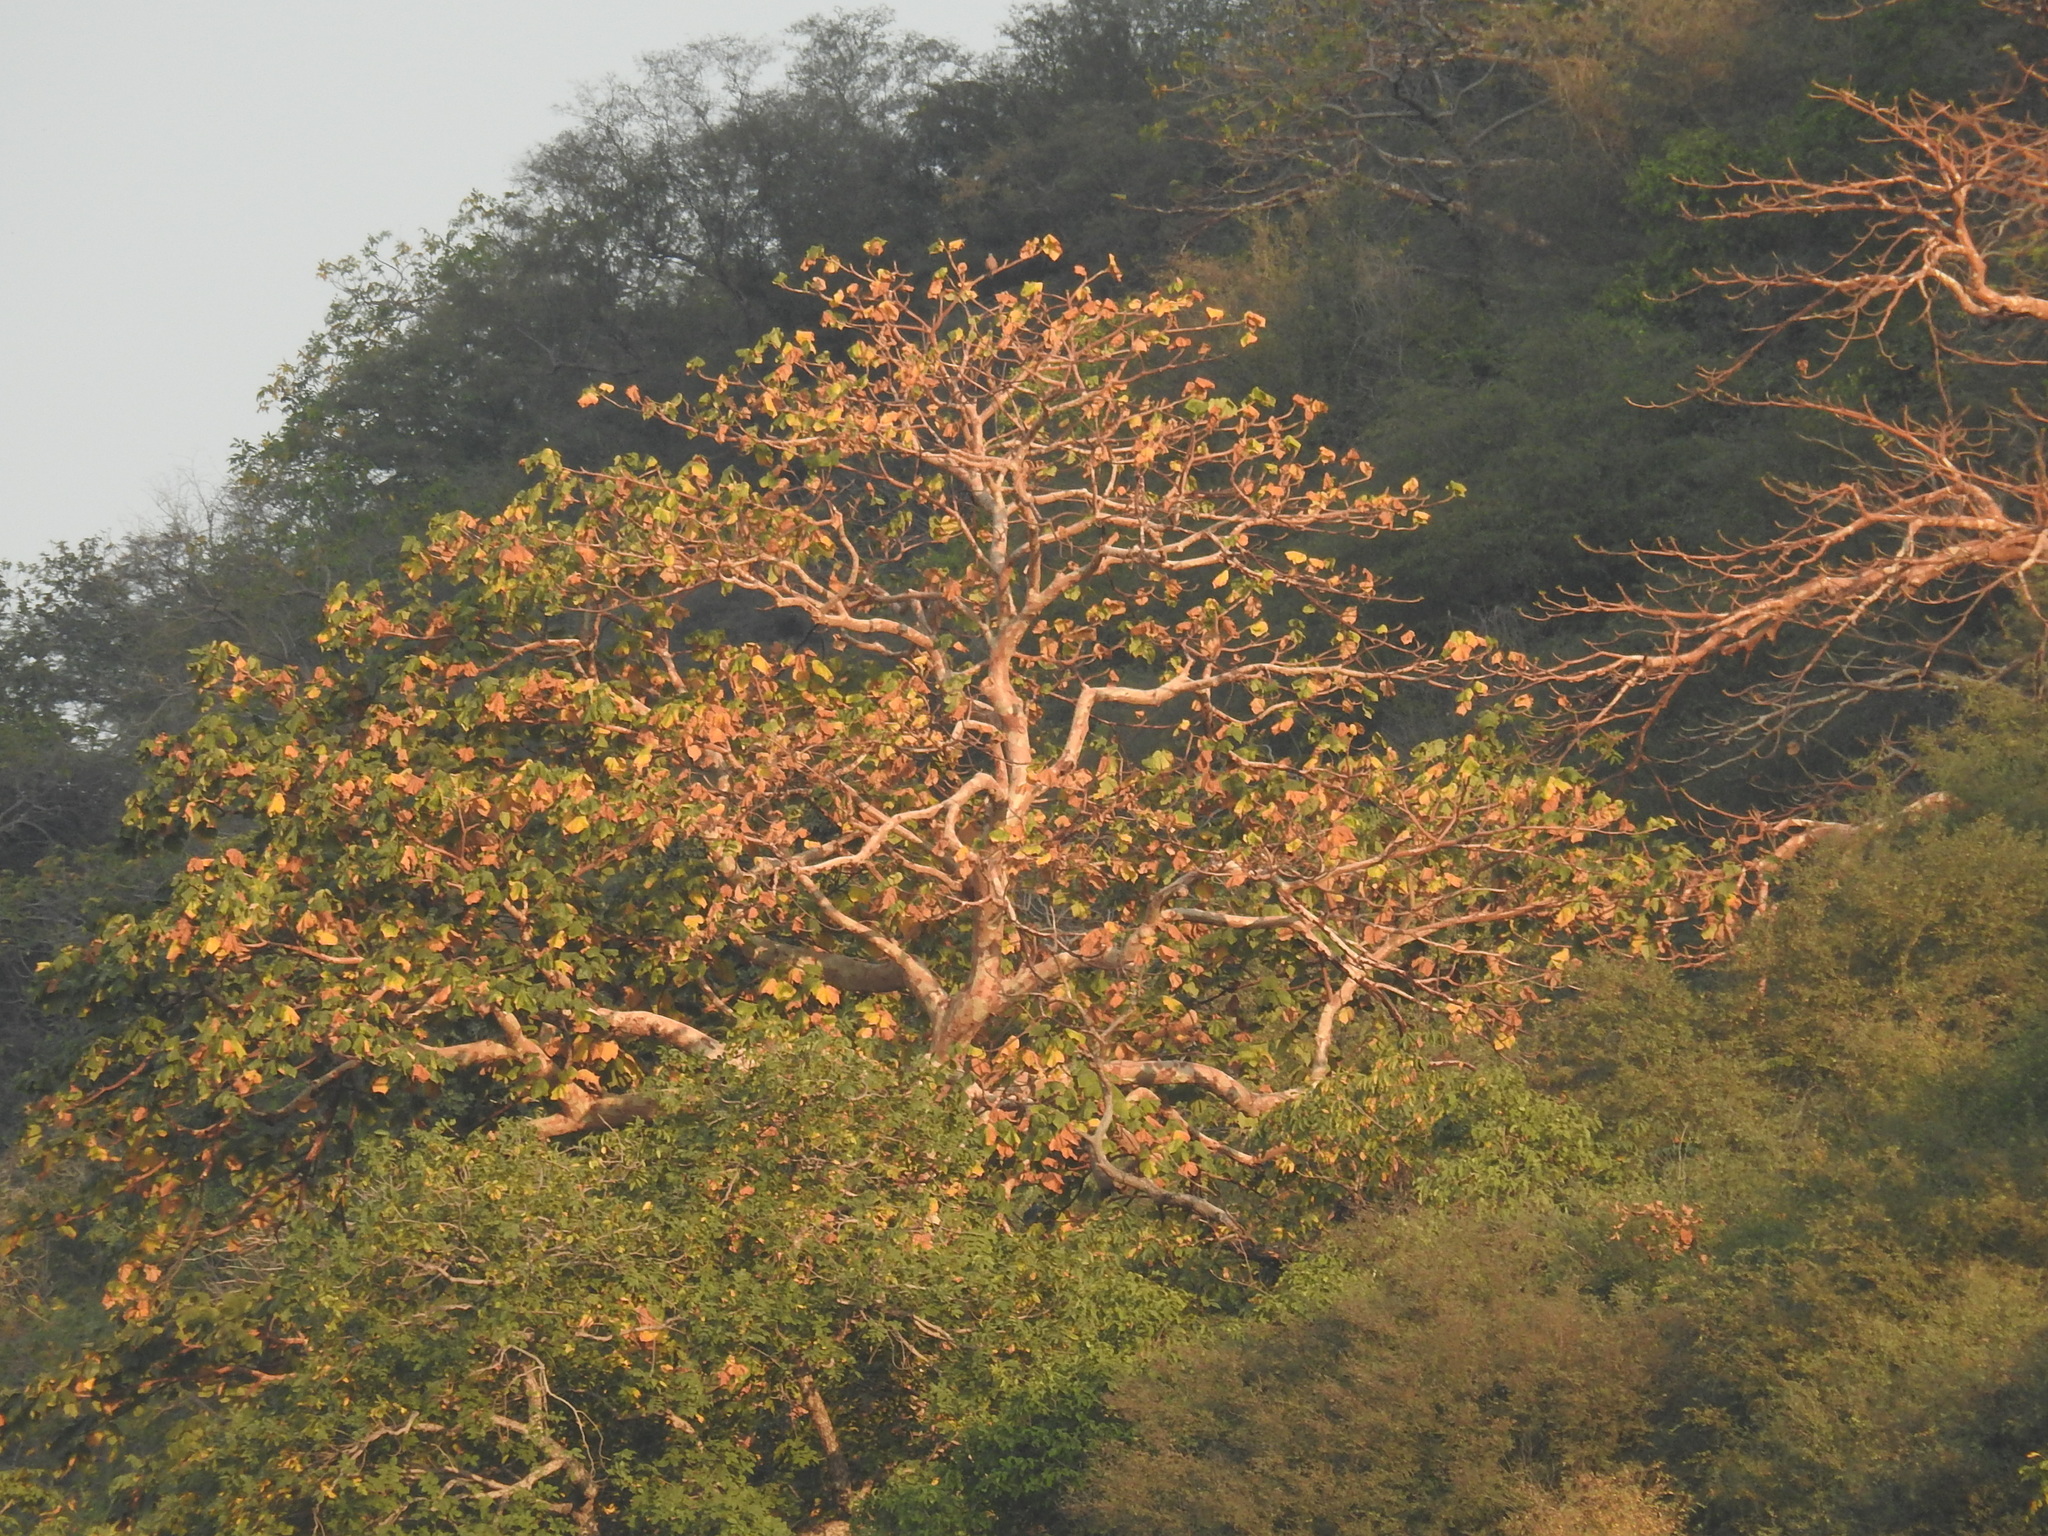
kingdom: Plantae
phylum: Tracheophyta
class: Magnoliopsida
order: Malvales
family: Malvaceae
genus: Sterculia
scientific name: Sterculia urens
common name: Indian-tragacanth
